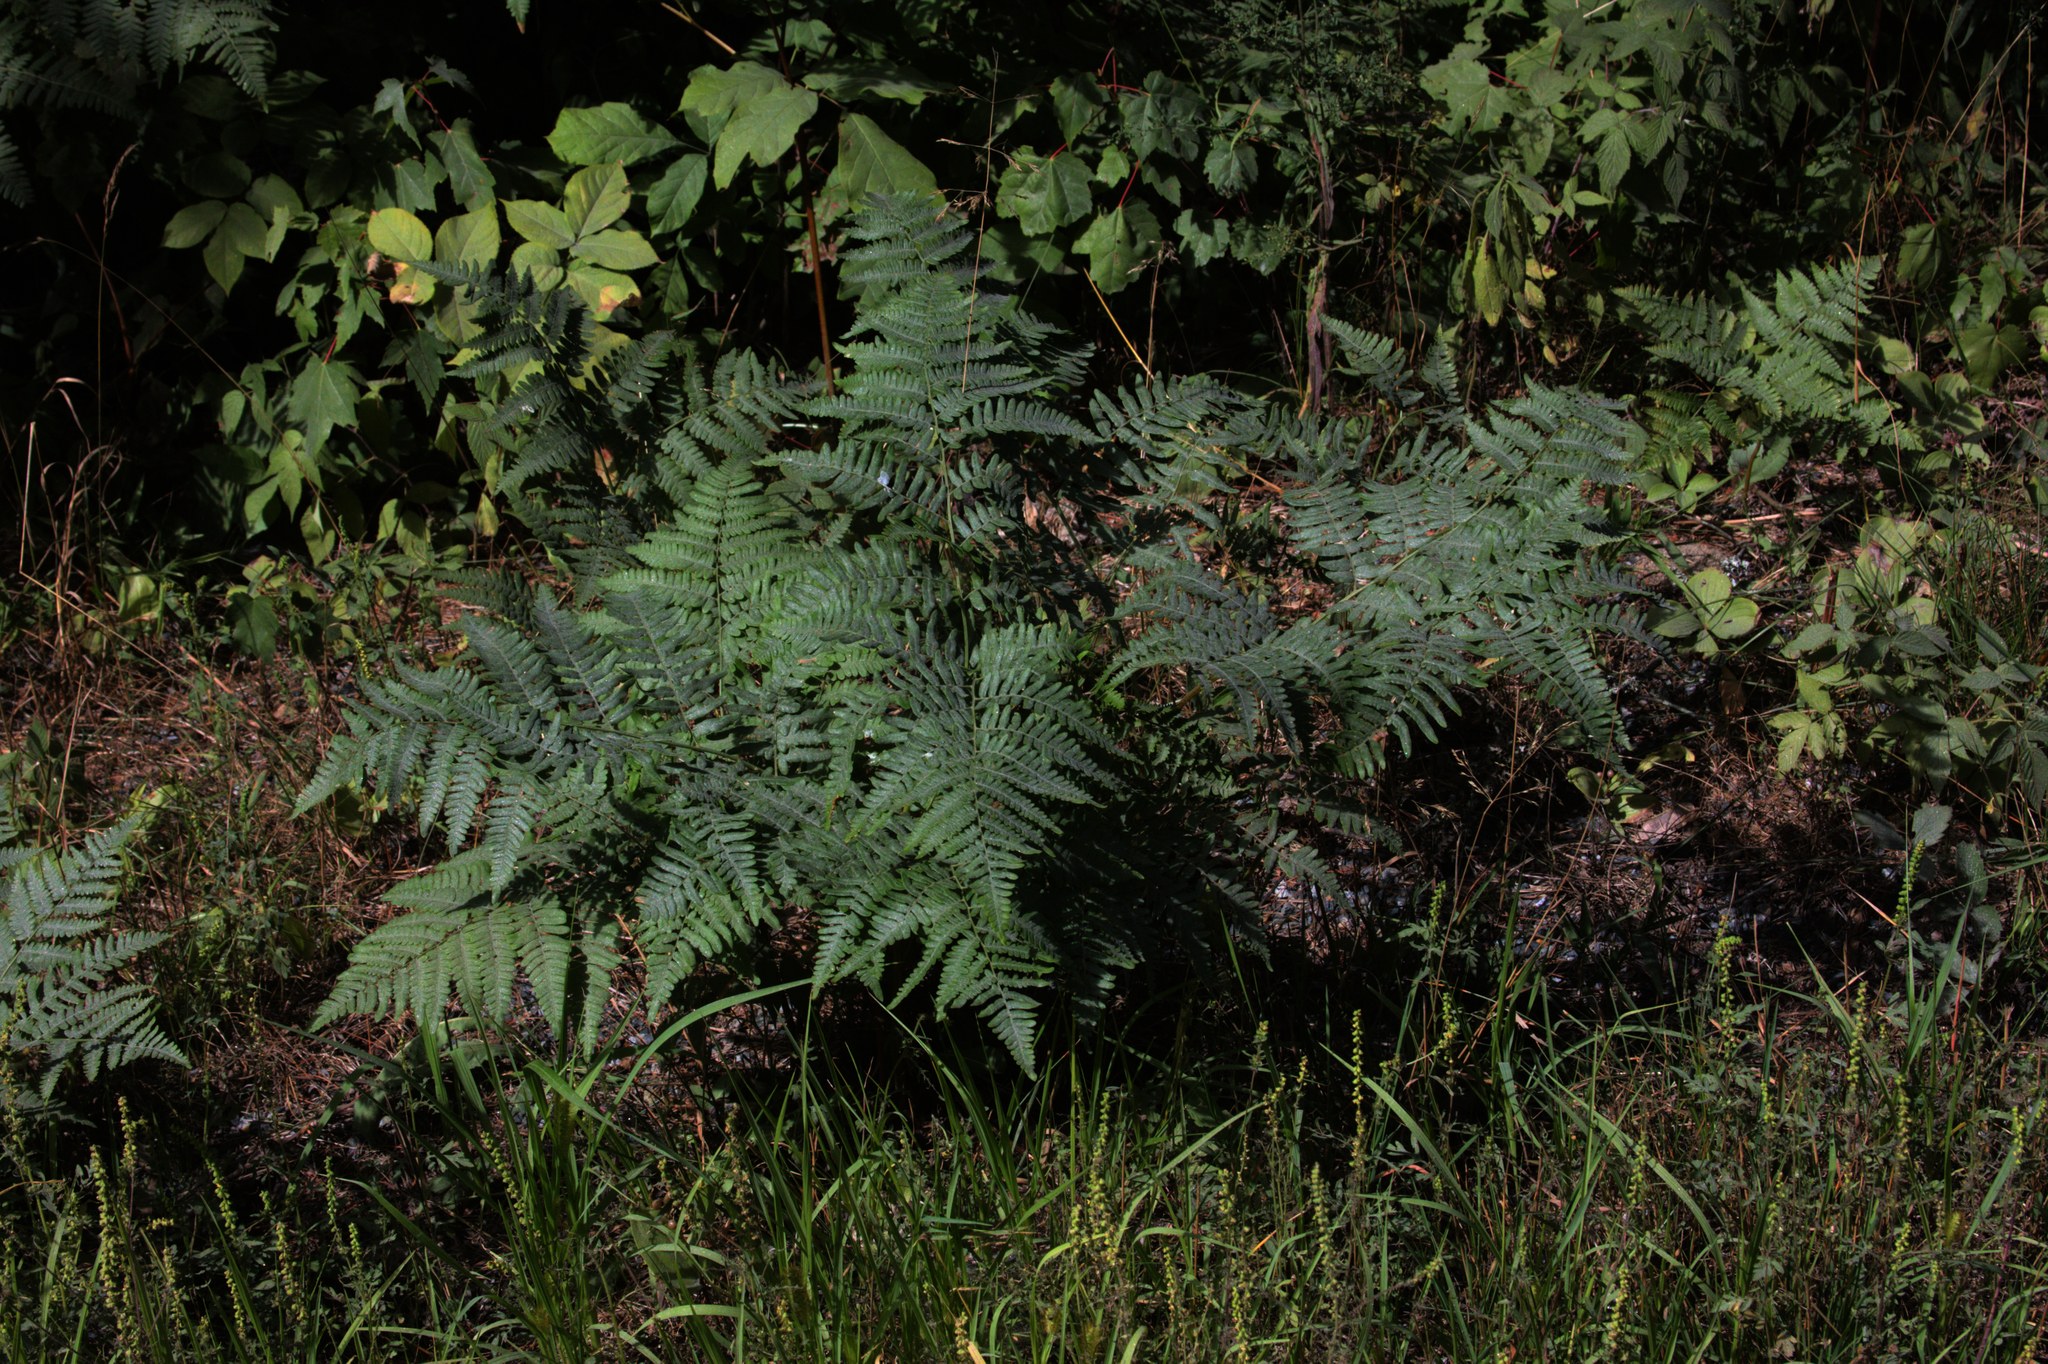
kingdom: Plantae
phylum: Tracheophyta
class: Polypodiopsida
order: Polypodiales
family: Dennstaedtiaceae
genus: Pteridium
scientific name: Pteridium aquilinum
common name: Bracken
